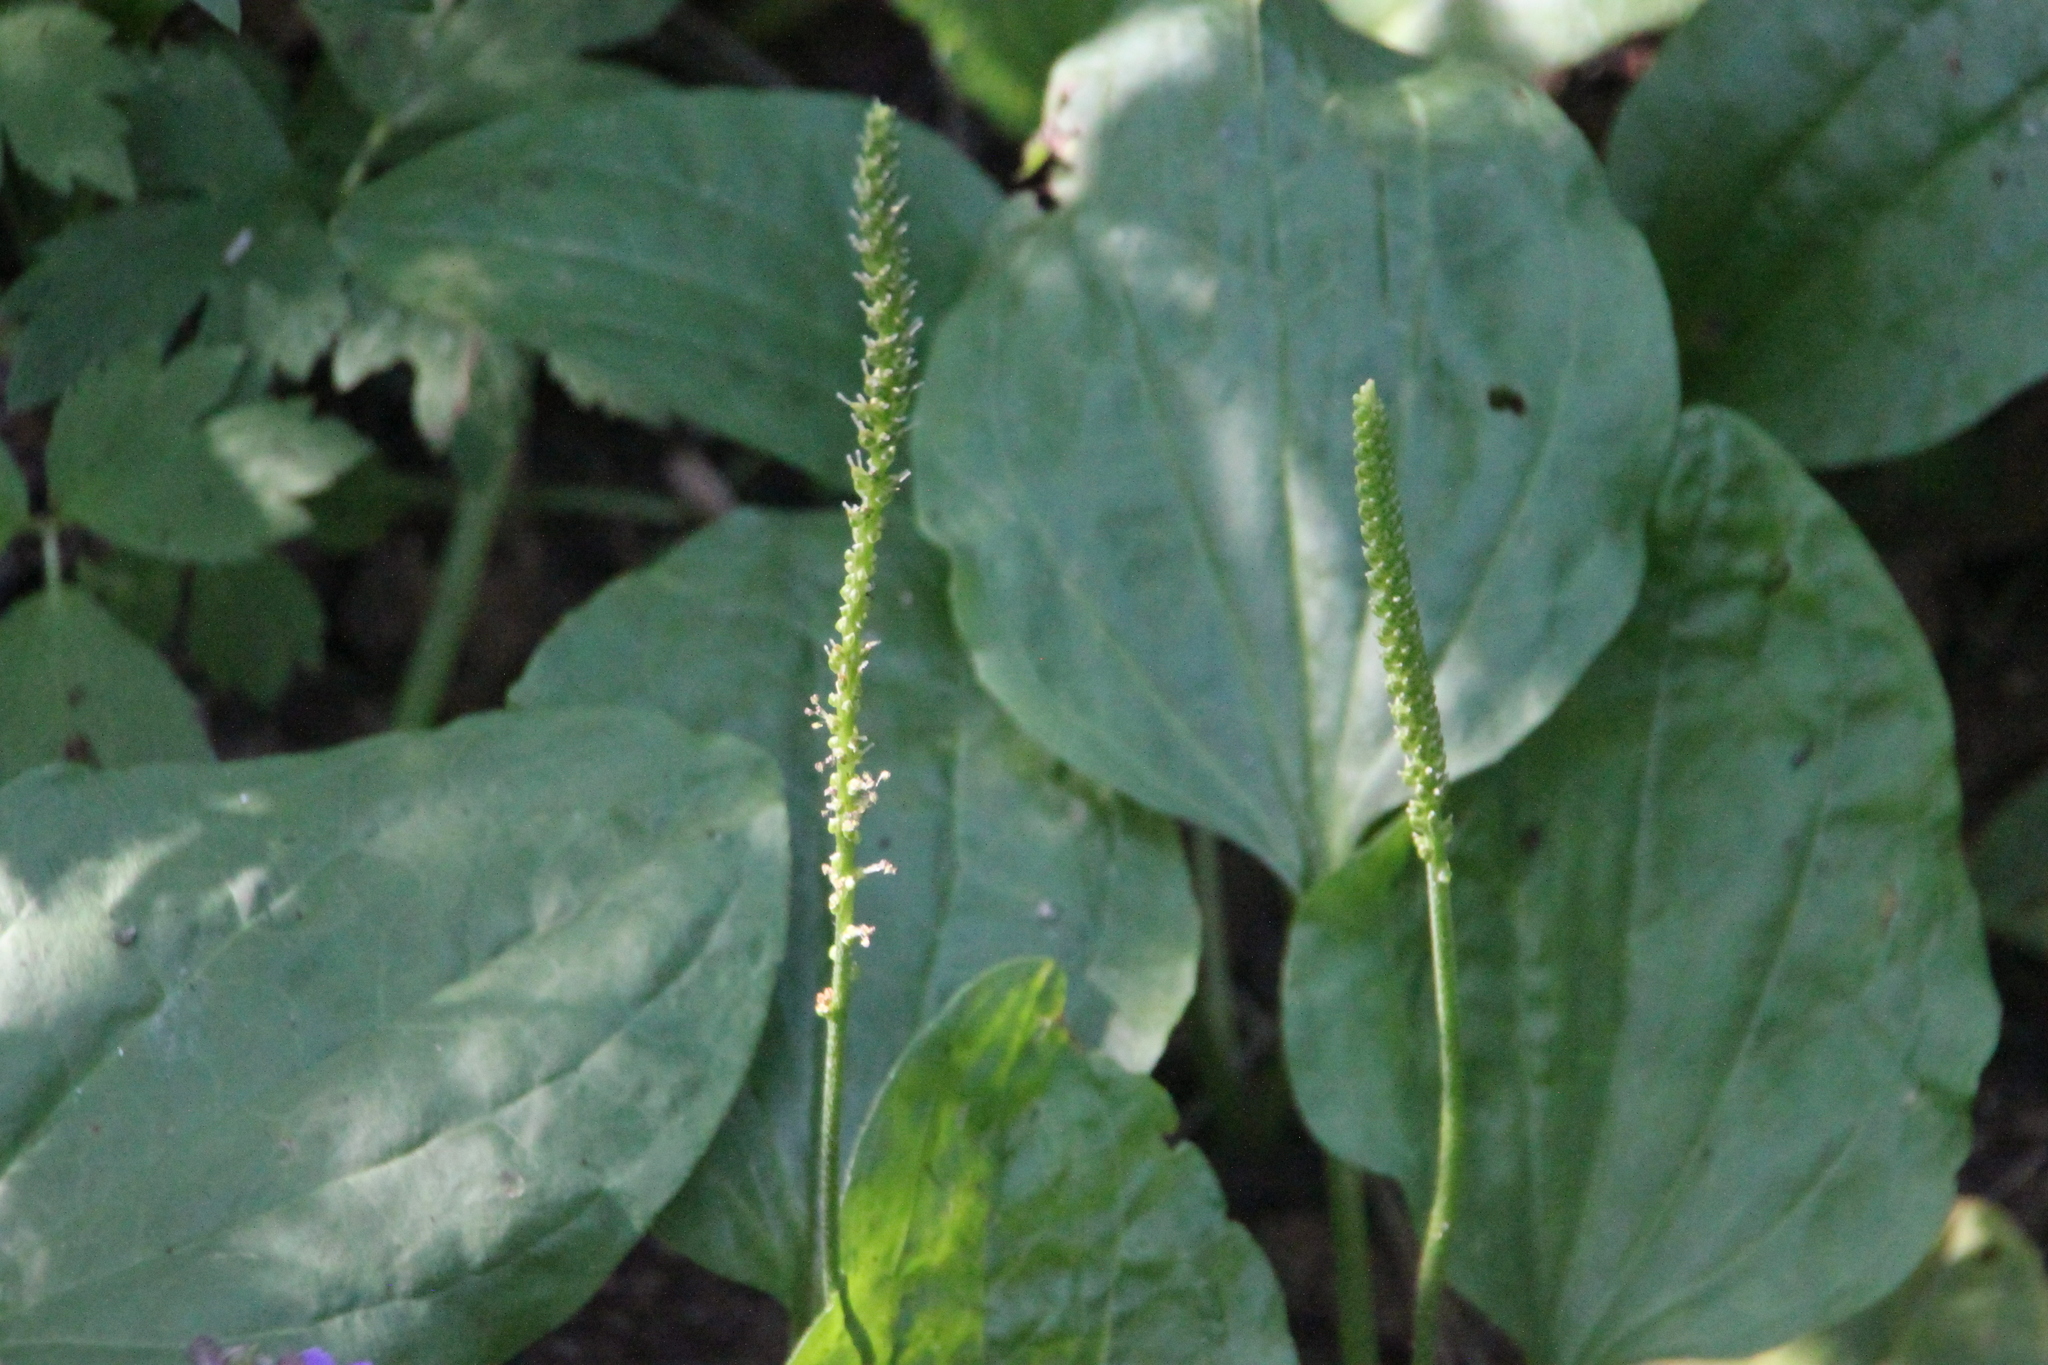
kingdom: Plantae
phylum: Tracheophyta
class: Magnoliopsida
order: Lamiales
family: Plantaginaceae
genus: Plantago
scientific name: Plantago major
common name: Common plantain
